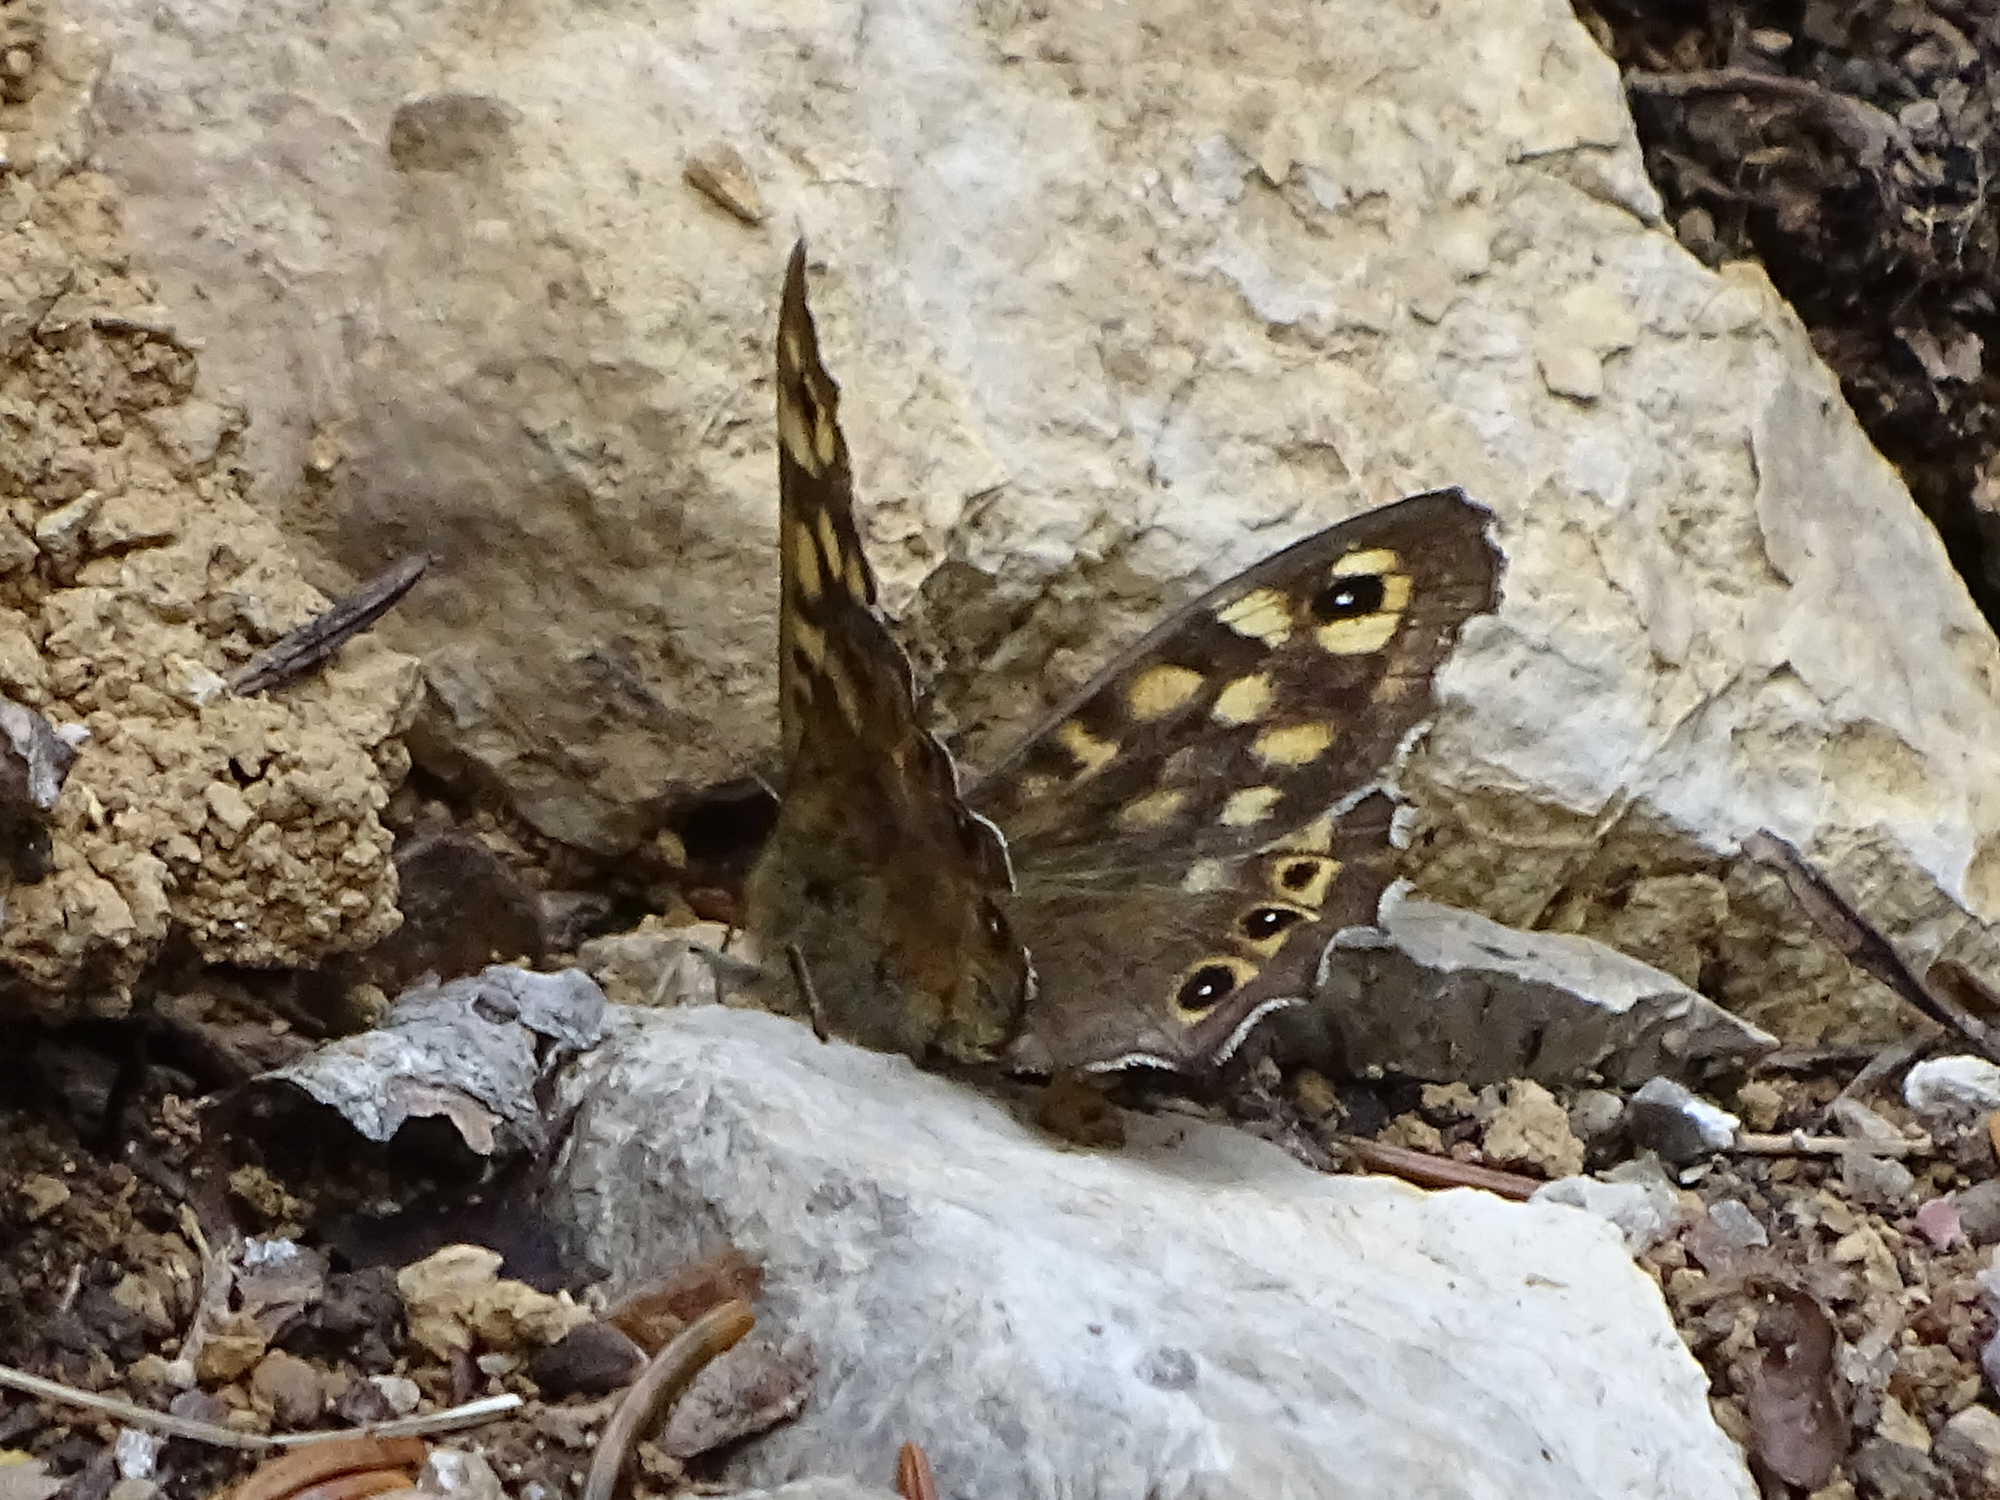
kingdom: Animalia
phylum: Arthropoda
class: Insecta
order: Lepidoptera
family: Nymphalidae
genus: Pararge
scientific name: Pararge aegeria
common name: Speckled wood
